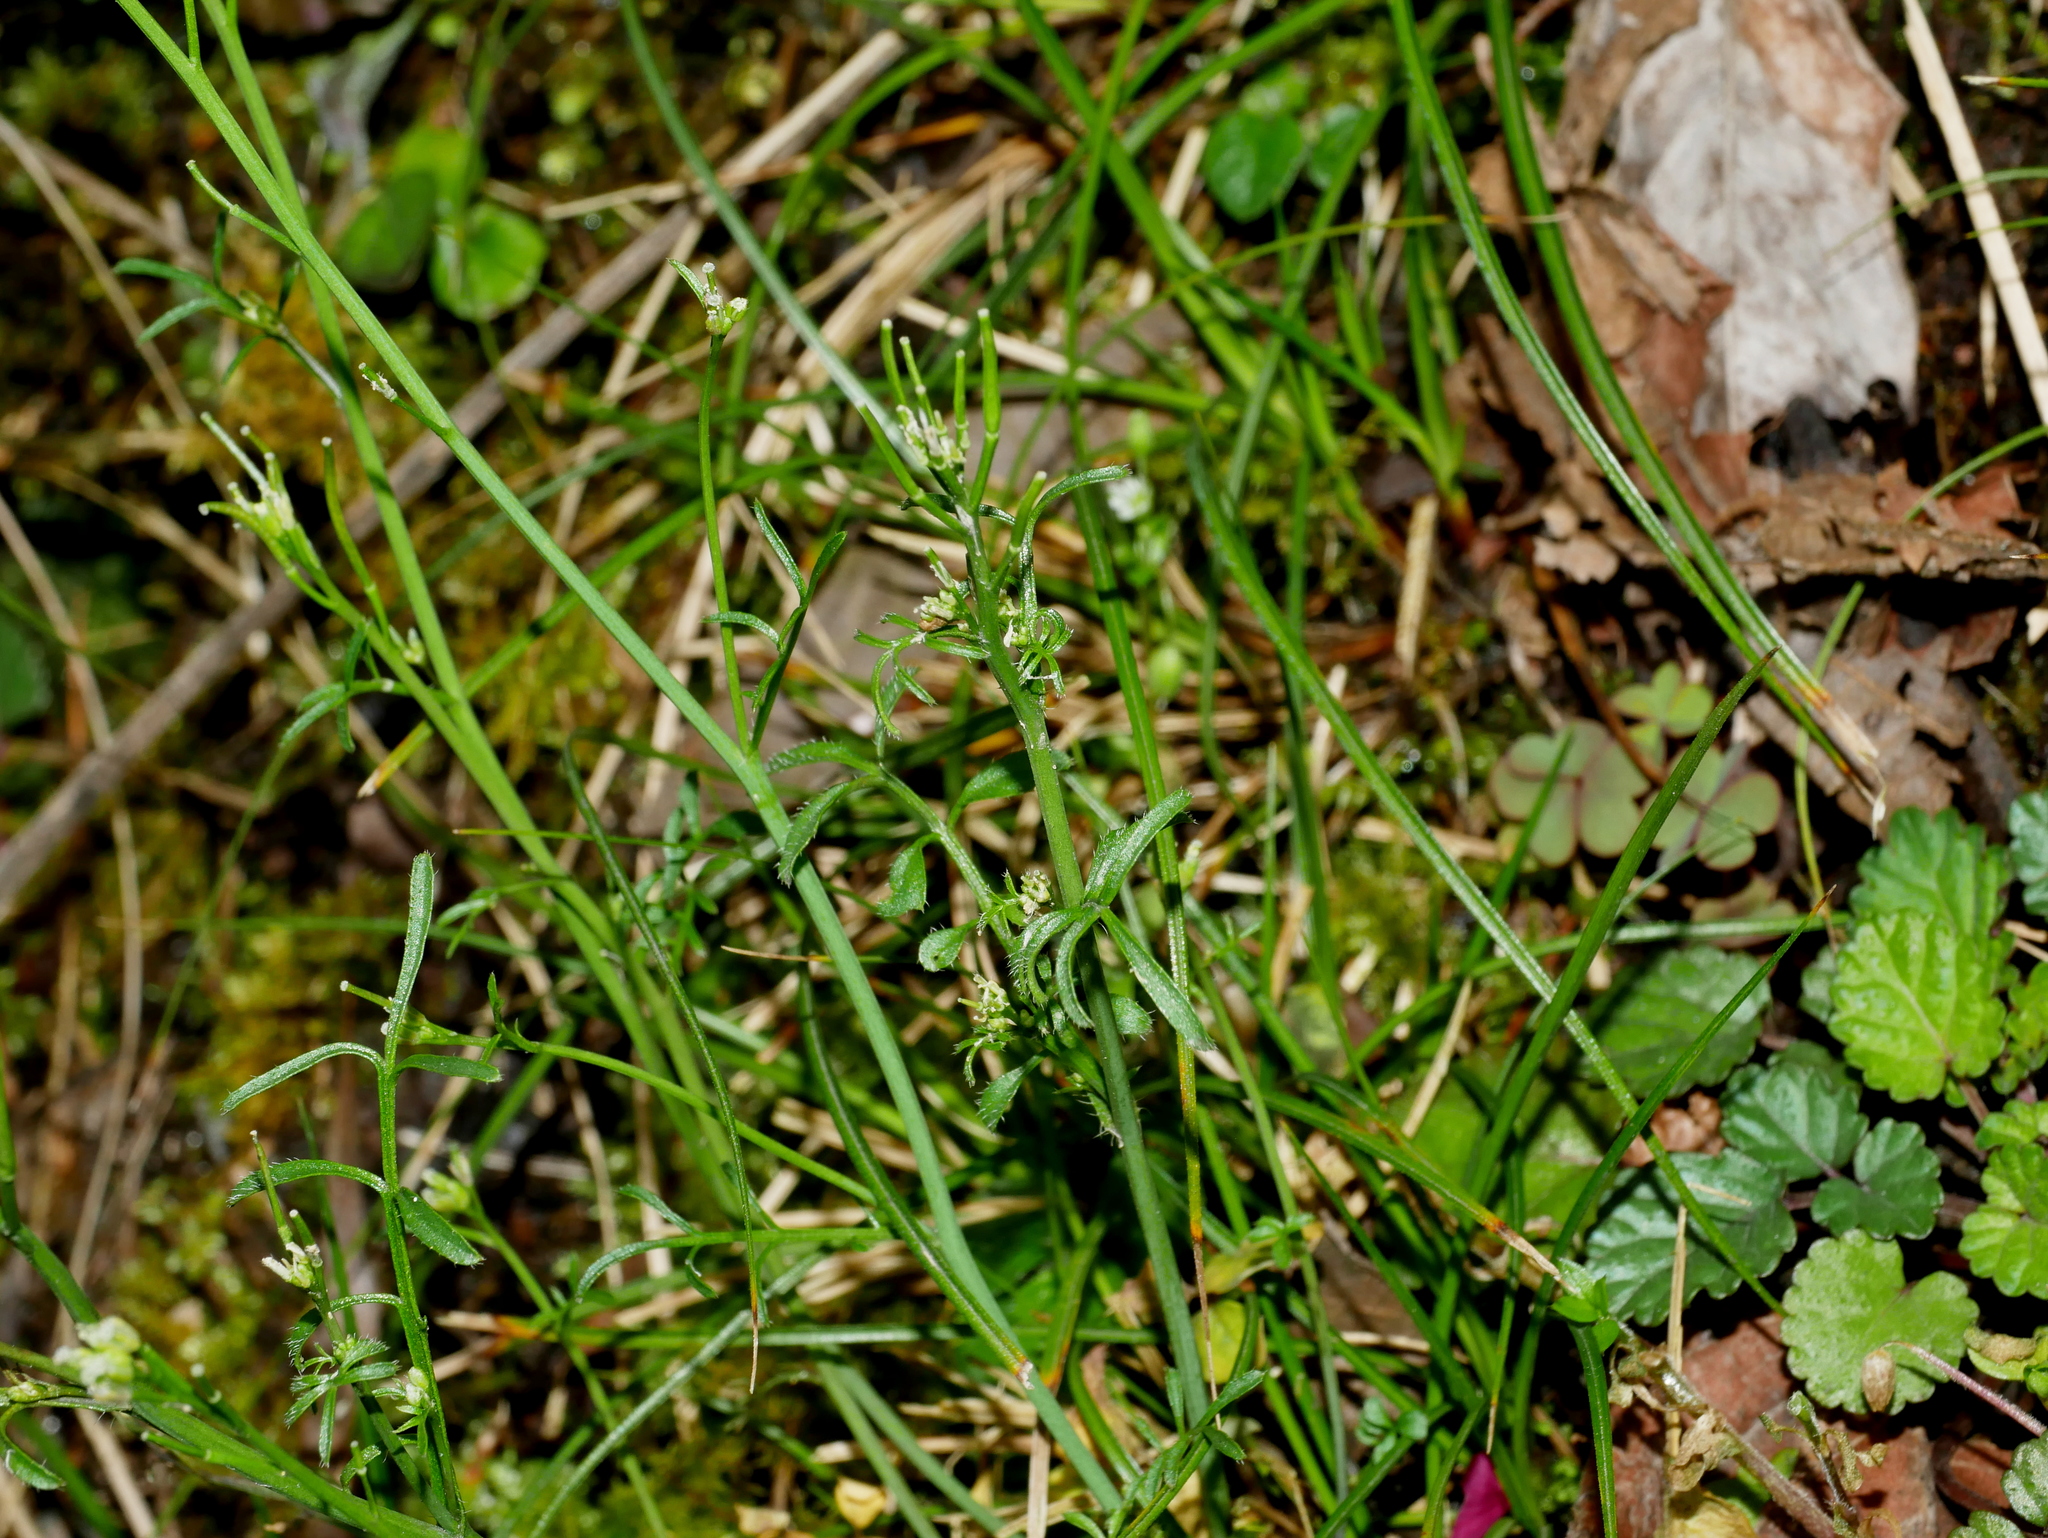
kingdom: Plantae
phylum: Tracheophyta
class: Magnoliopsida
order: Brassicales
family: Brassicaceae
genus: Cardamine
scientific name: Cardamine hirsuta
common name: Hairy bittercress
